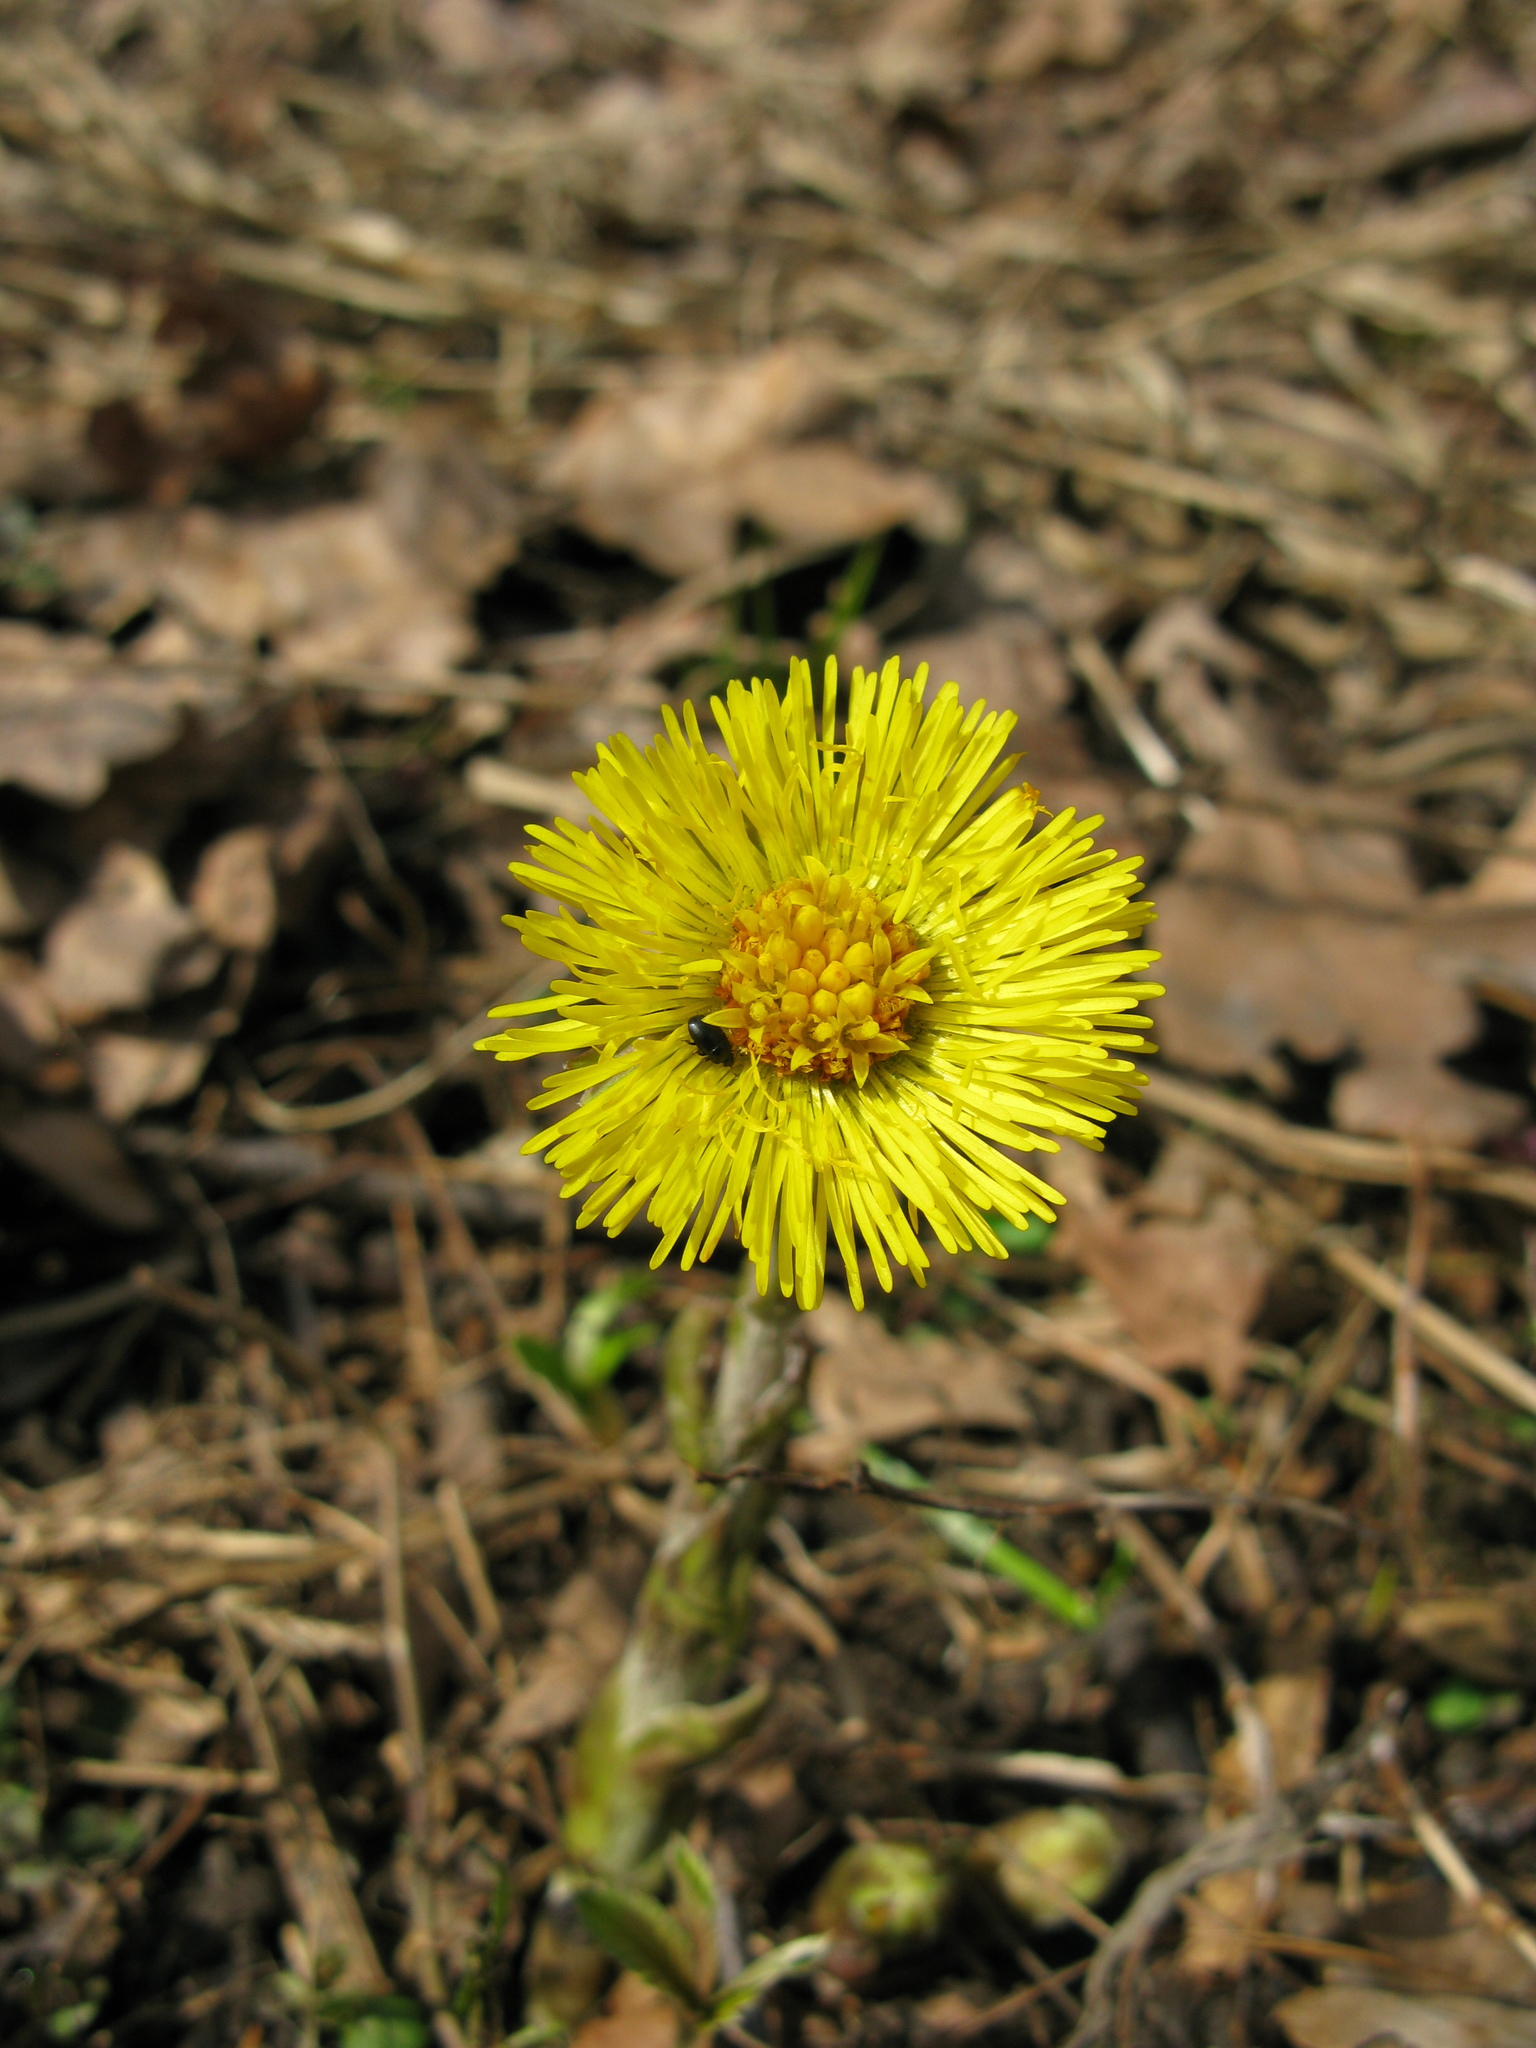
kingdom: Plantae
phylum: Tracheophyta
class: Magnoliopsida
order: Asterales
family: Asteraceae
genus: Tussilago
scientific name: Tussilago farfara
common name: Coltsfoot
